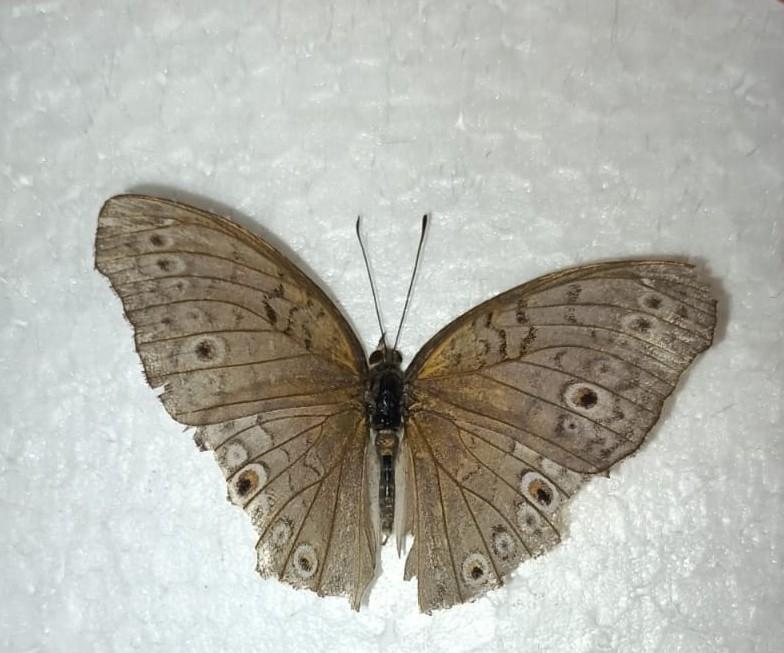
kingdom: Animalia
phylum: Arthropoda
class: Insecta
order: Lepidoptera
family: Nymphalidae
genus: Junonia
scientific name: Junonia atlites
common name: Grey pansy
